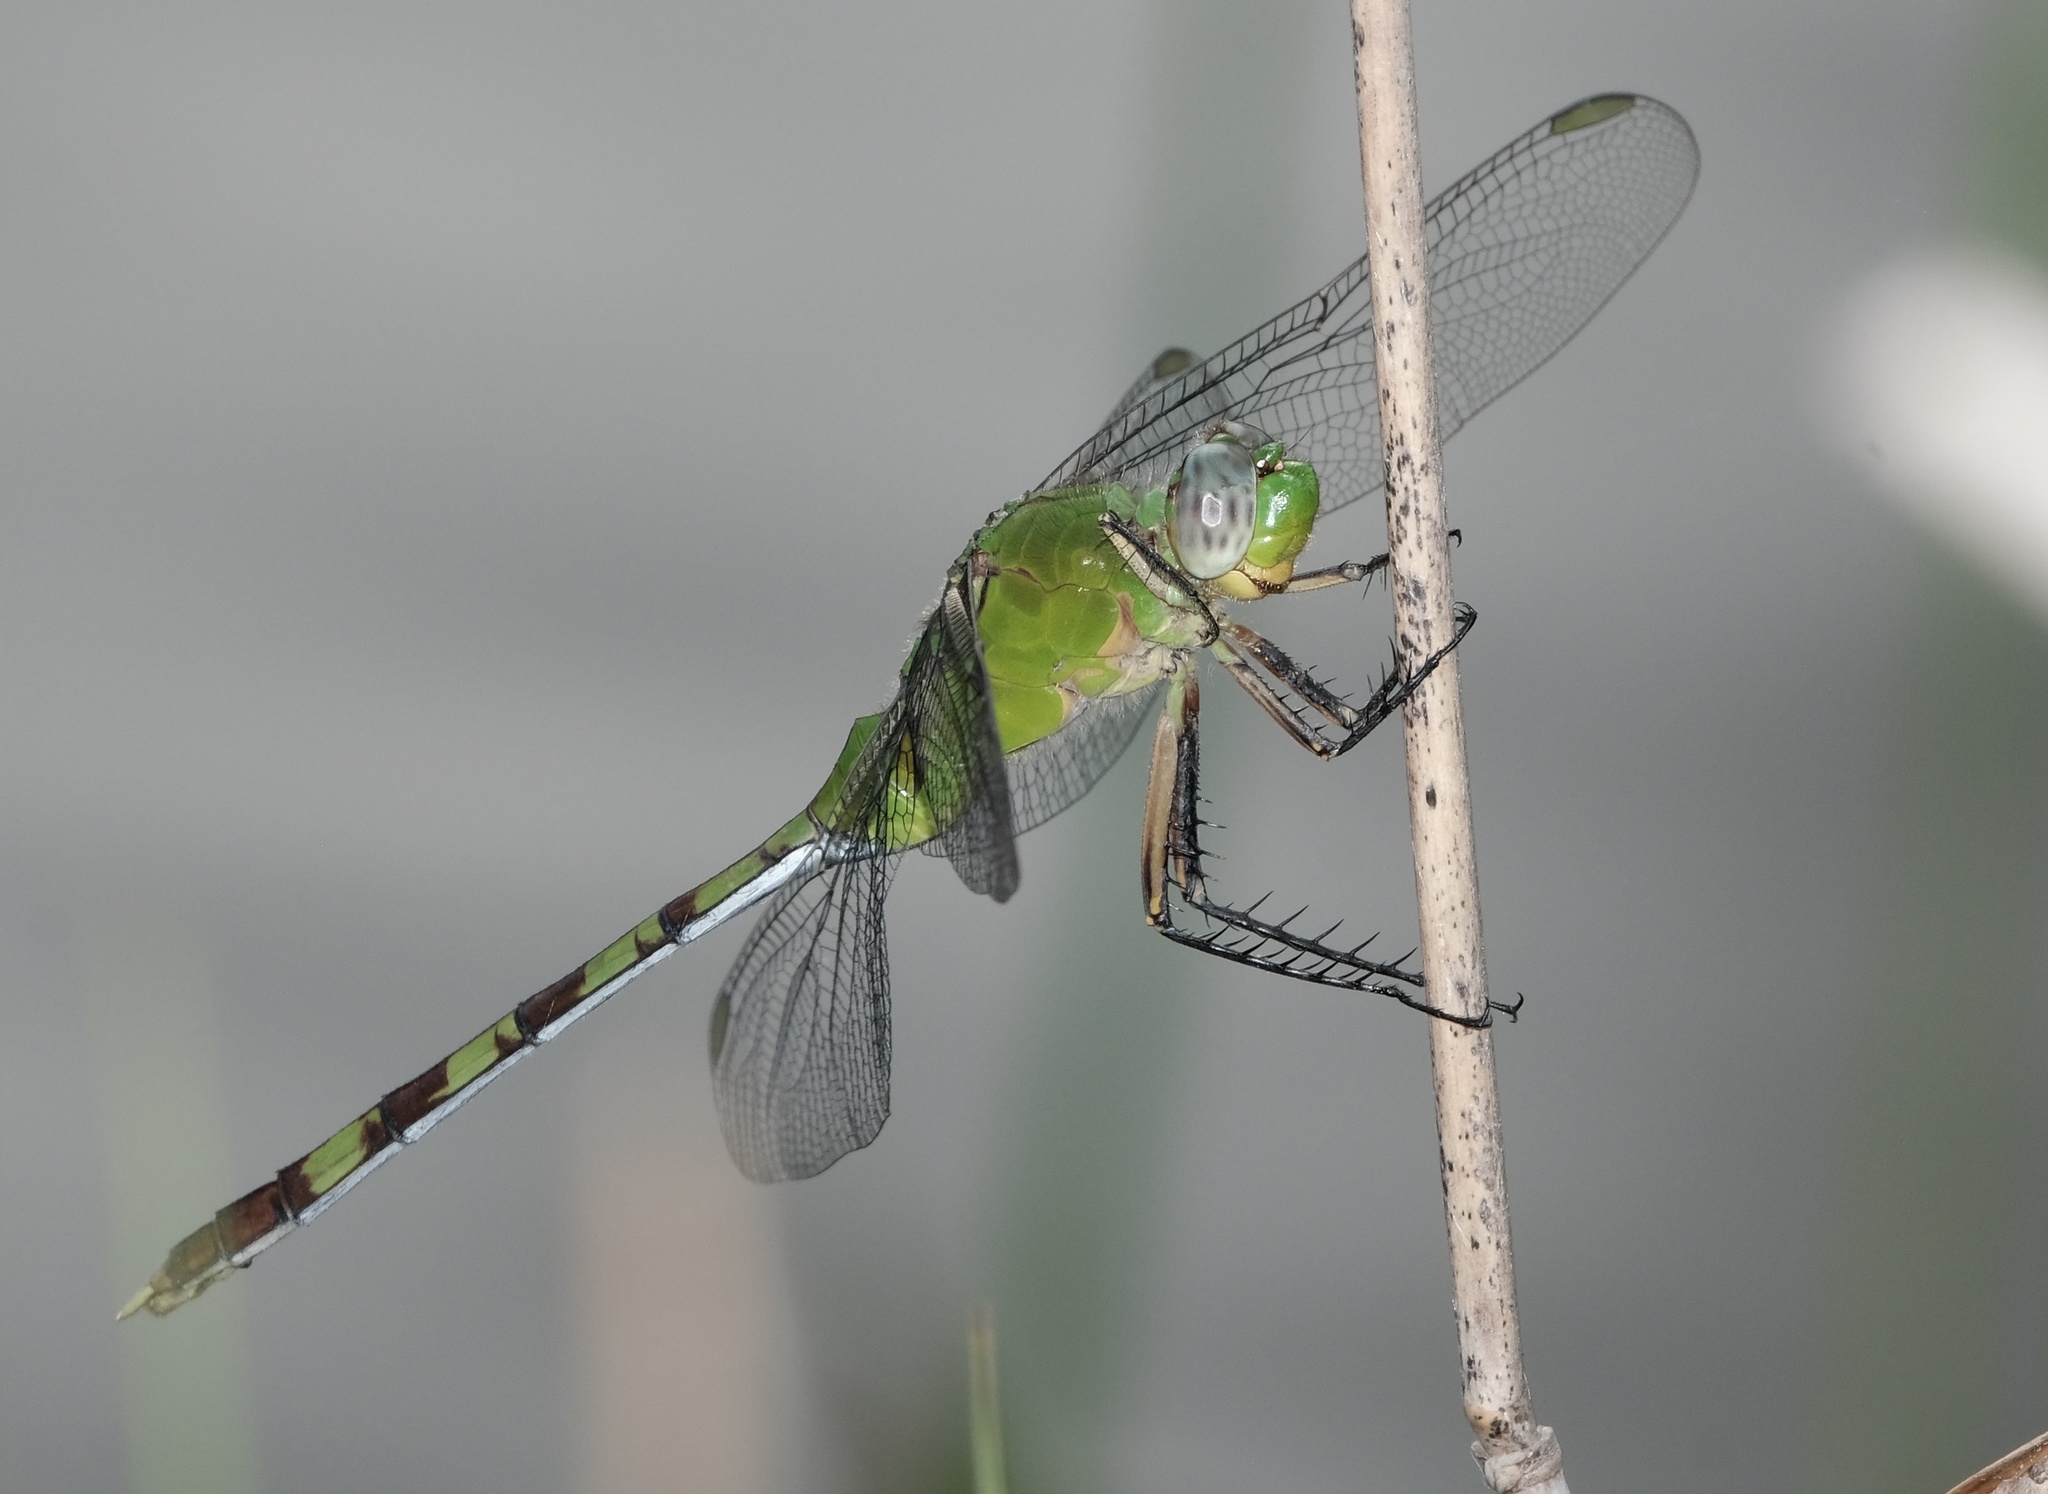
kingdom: Animalia
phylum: Arthropoda
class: Insecta
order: Odonata
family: Libellulidae
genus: Erythemis
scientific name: Erythemis vesiculosa
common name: Great pondhawk
